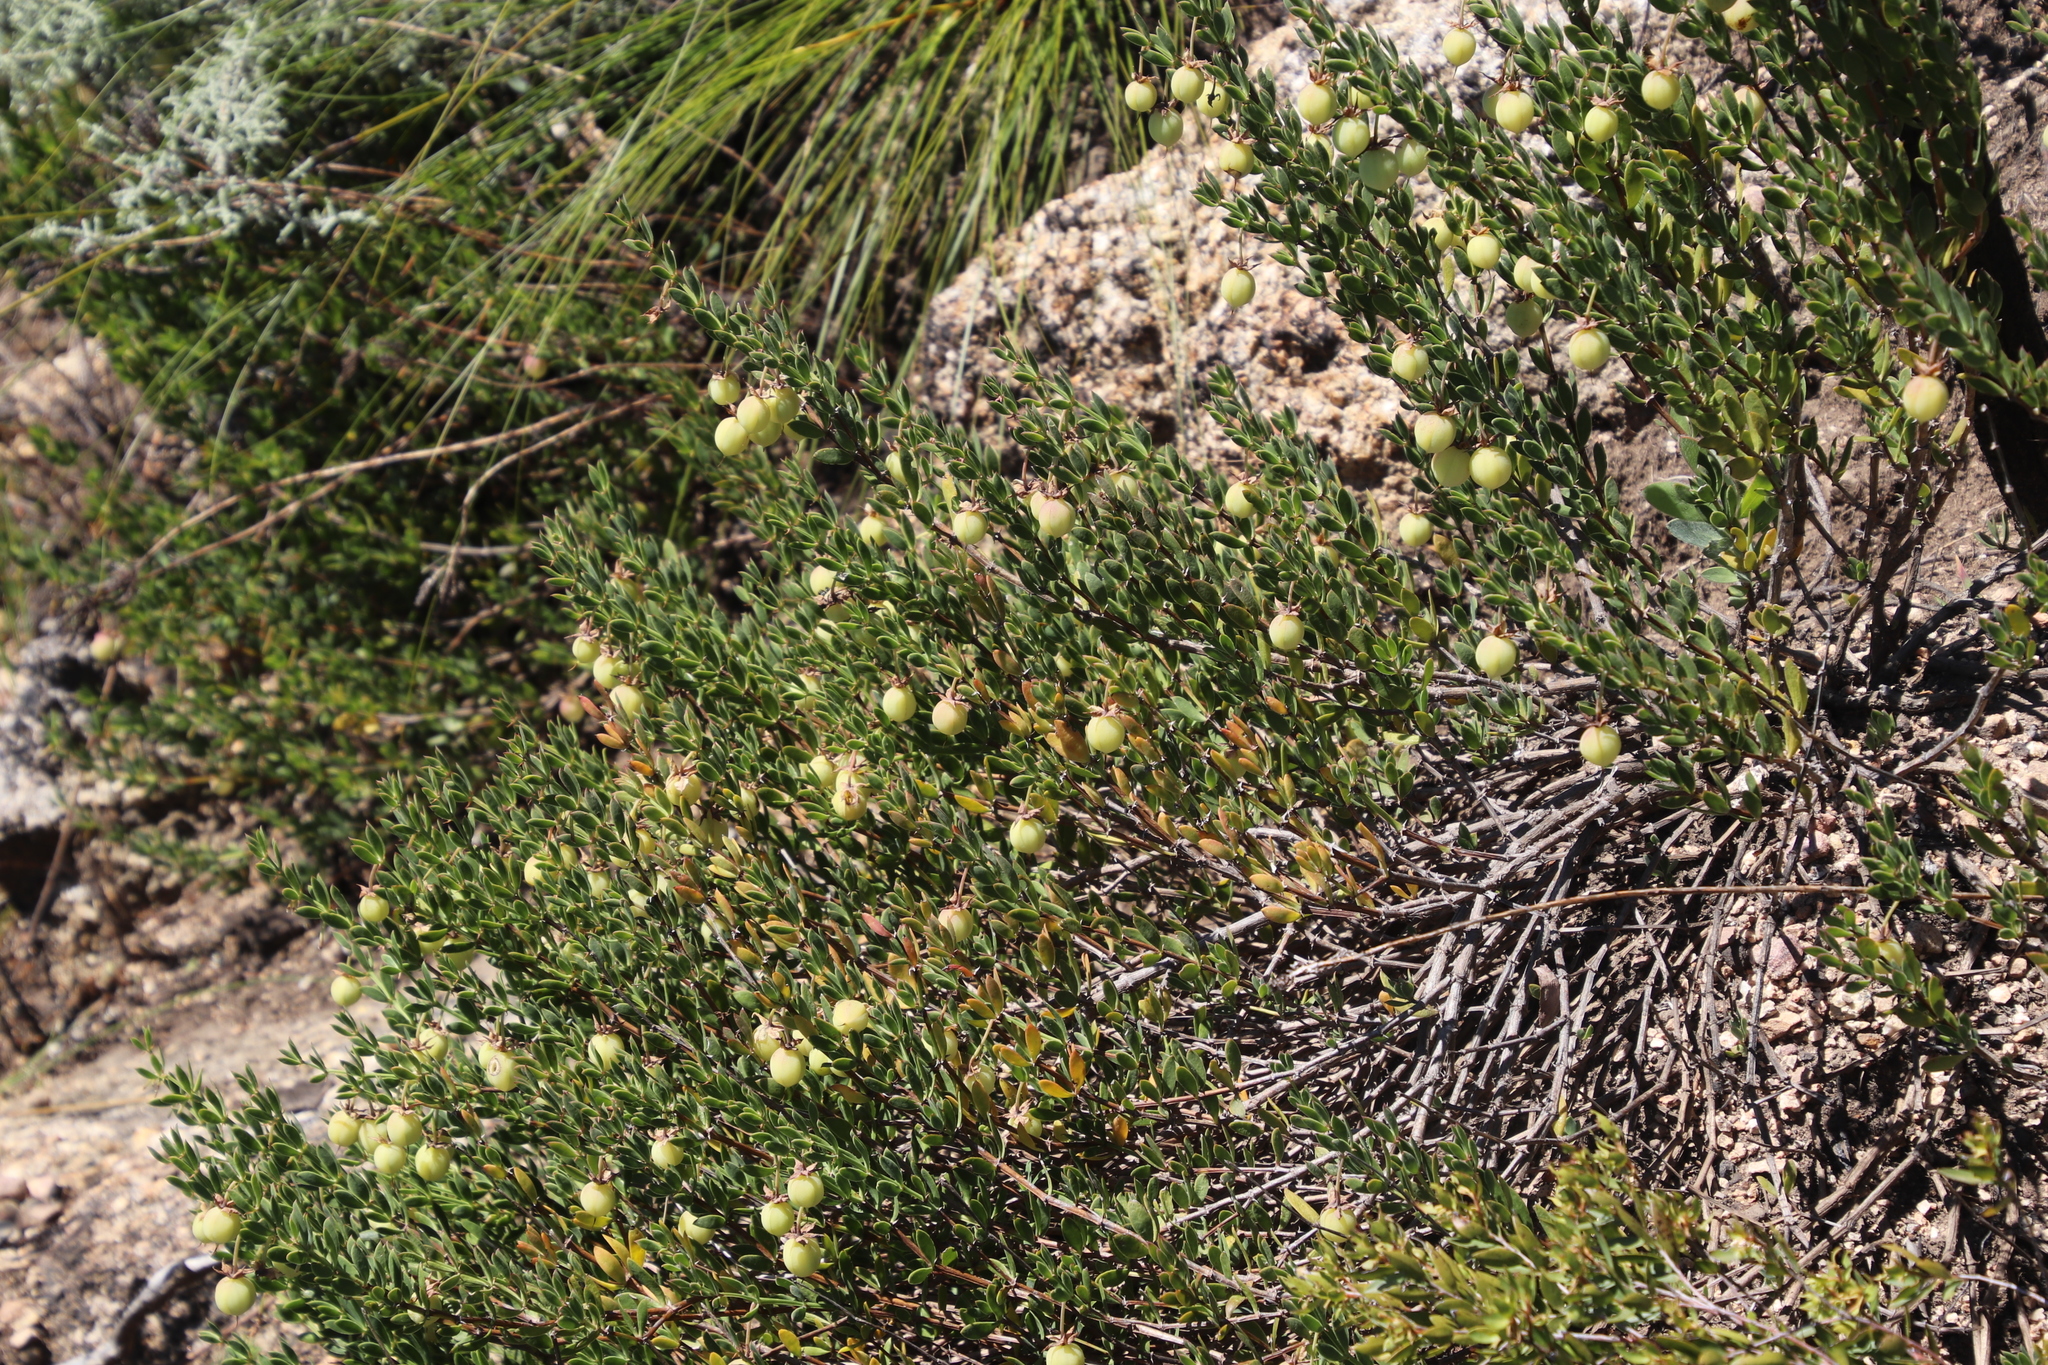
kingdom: Plantae
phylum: Tracheophyta
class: Magnoliopsida
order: Zygophyllales
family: Zygophyllaceae
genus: Roepera
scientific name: Roepera sessilifolia
